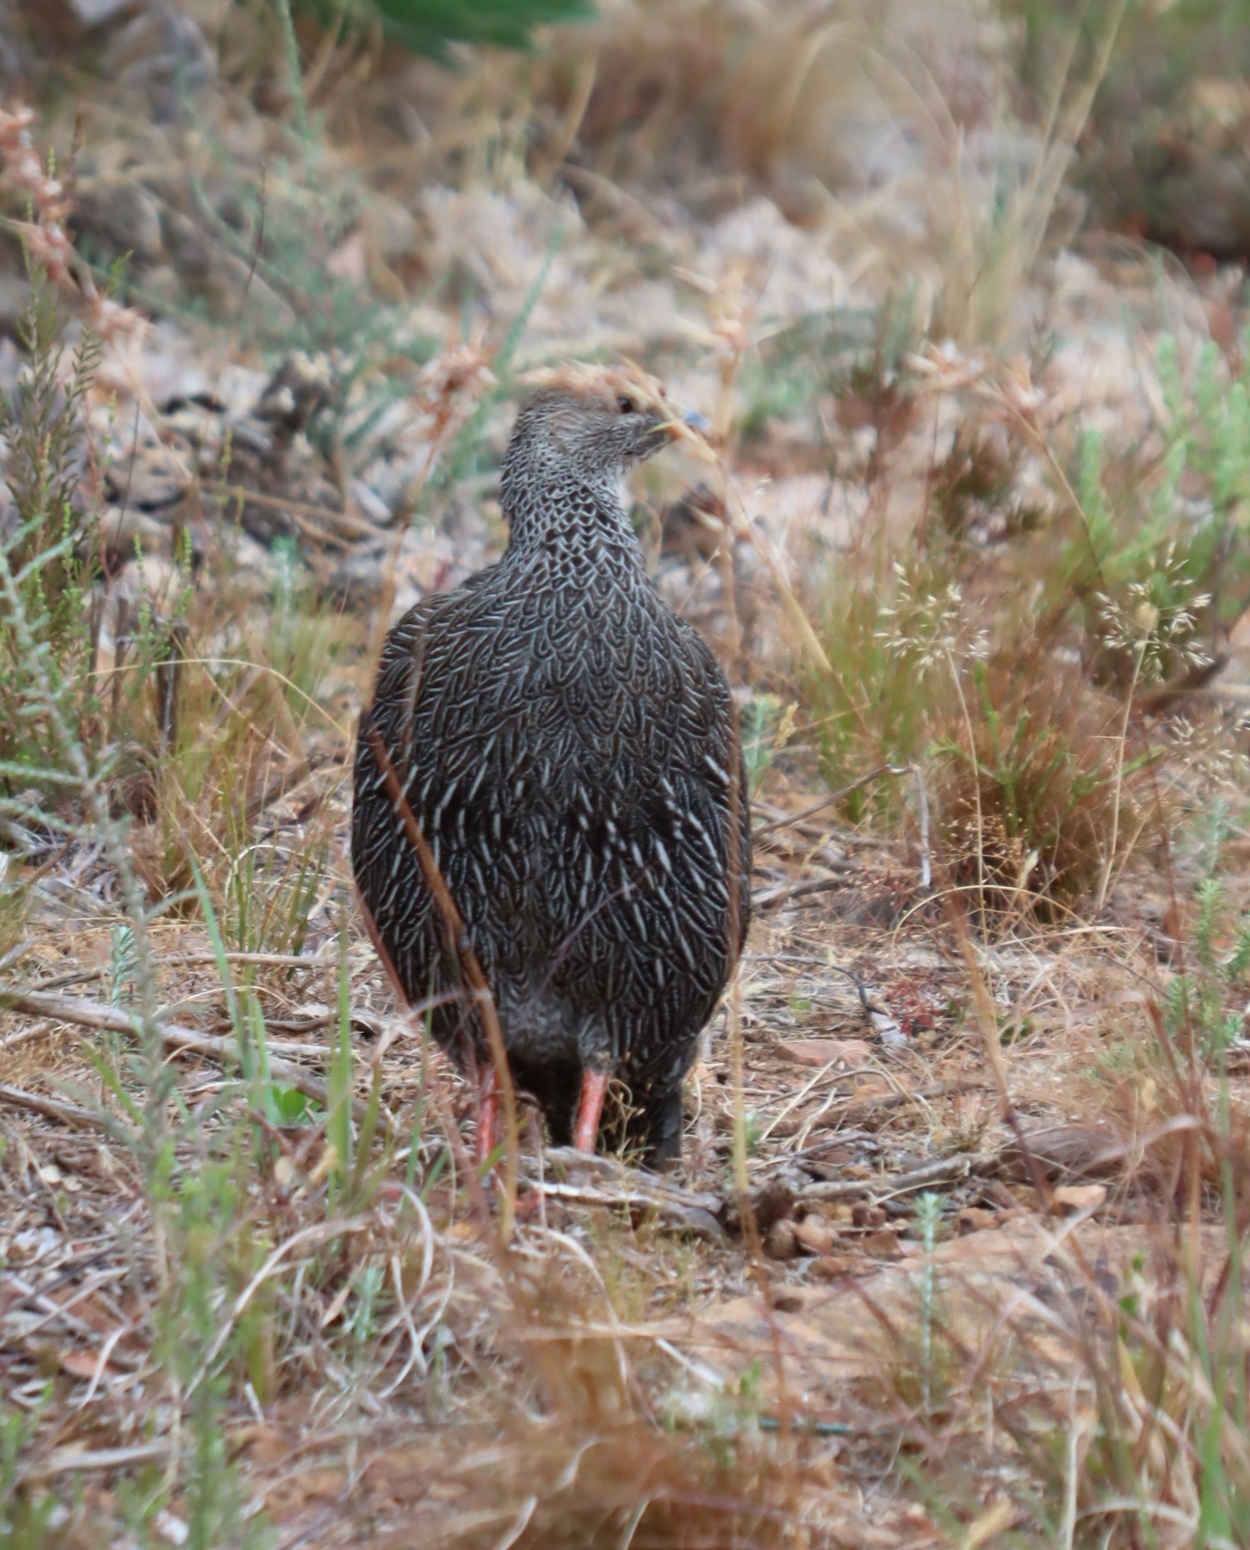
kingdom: Animalia
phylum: Chordata
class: Aves
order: Galliformes
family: Phasianidae
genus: Pternistis
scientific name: Pternistis capensis
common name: Cape spurfowl
